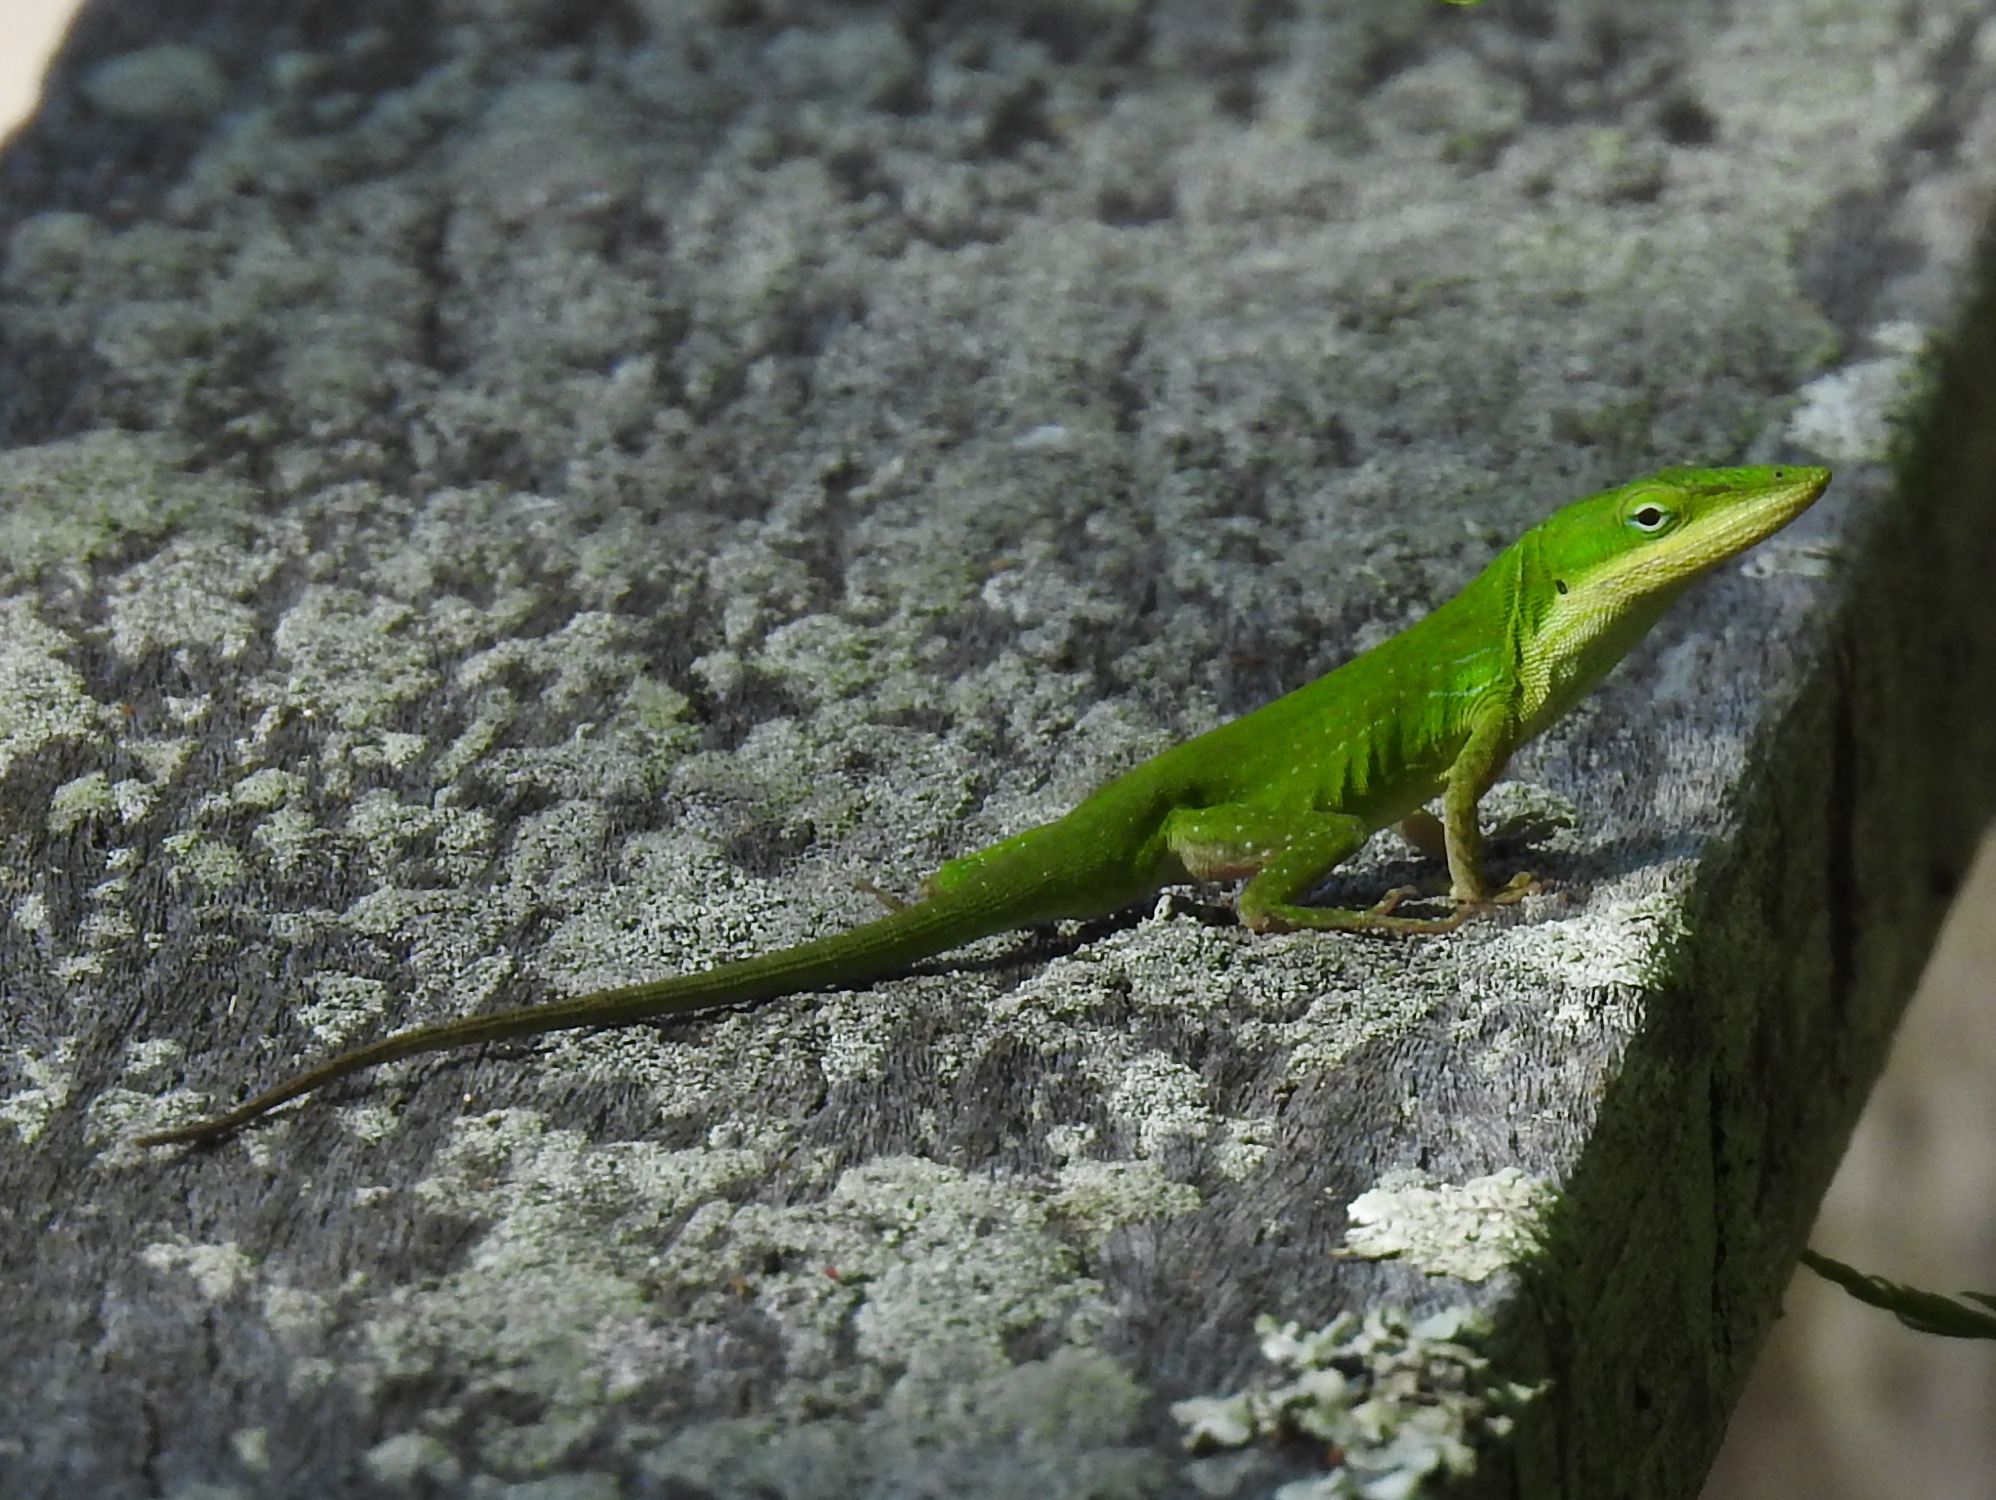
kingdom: Animalia
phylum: Chordata
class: Squamata
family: Dactyloidae
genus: Anolis
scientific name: Anolis carolinensis
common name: Green anole
